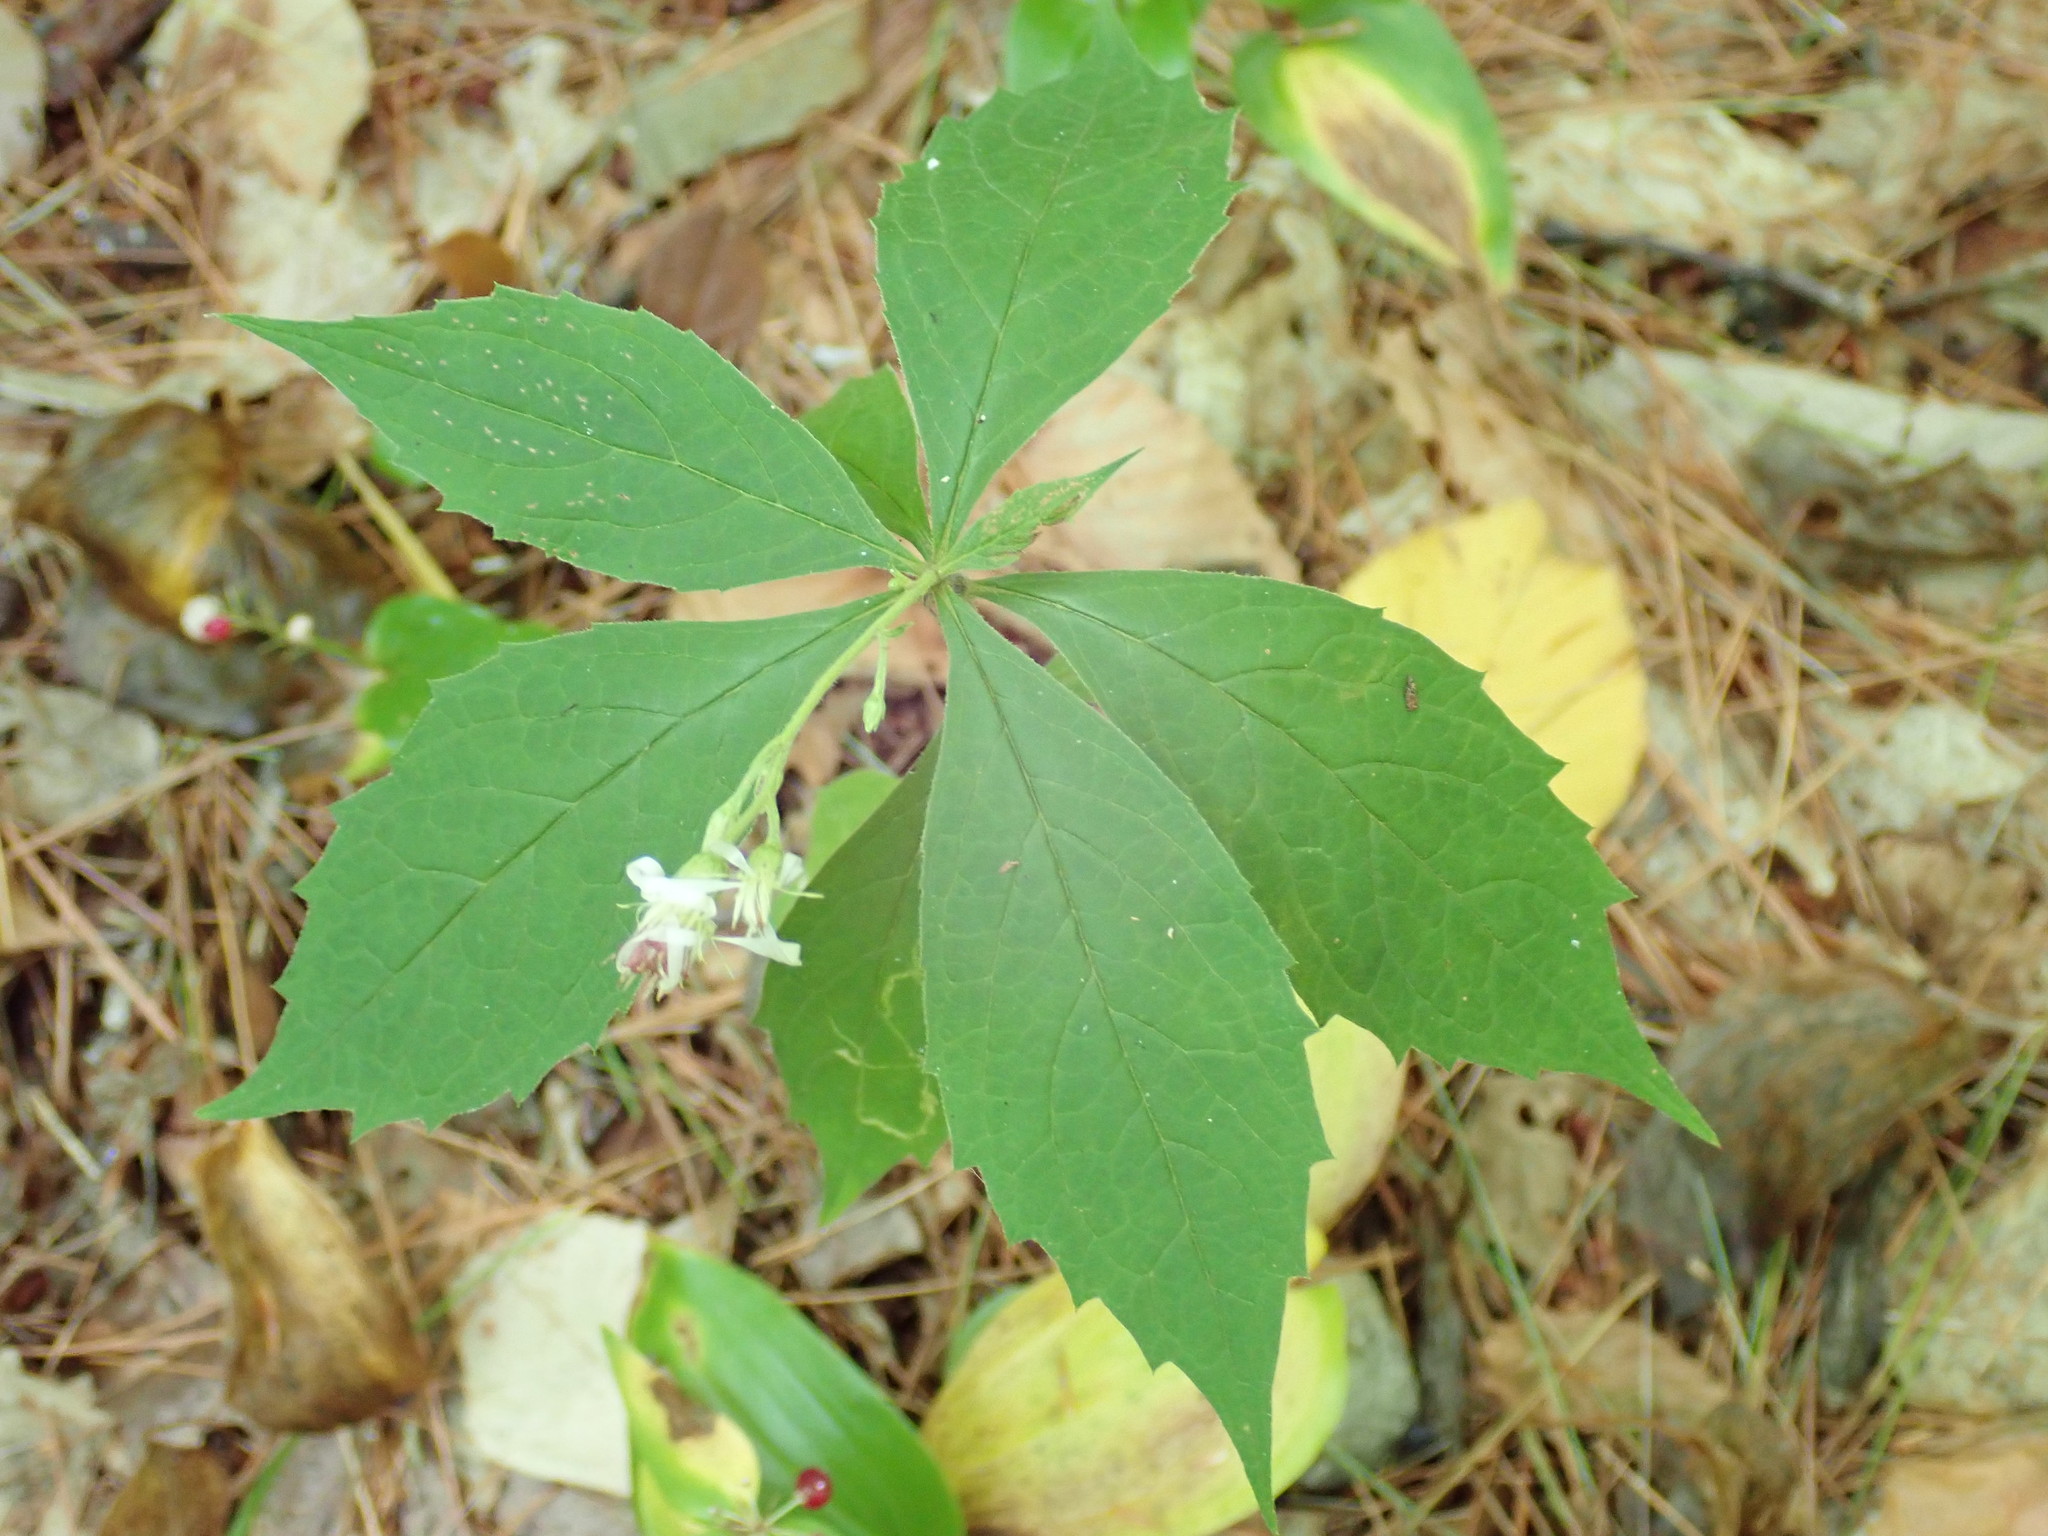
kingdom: Plantae
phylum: Tracheophyta
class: Magnoliopsida
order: Asterales
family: Asteraceae
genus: Oclemena
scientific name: Oclemena acuminata
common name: Mountain aster
